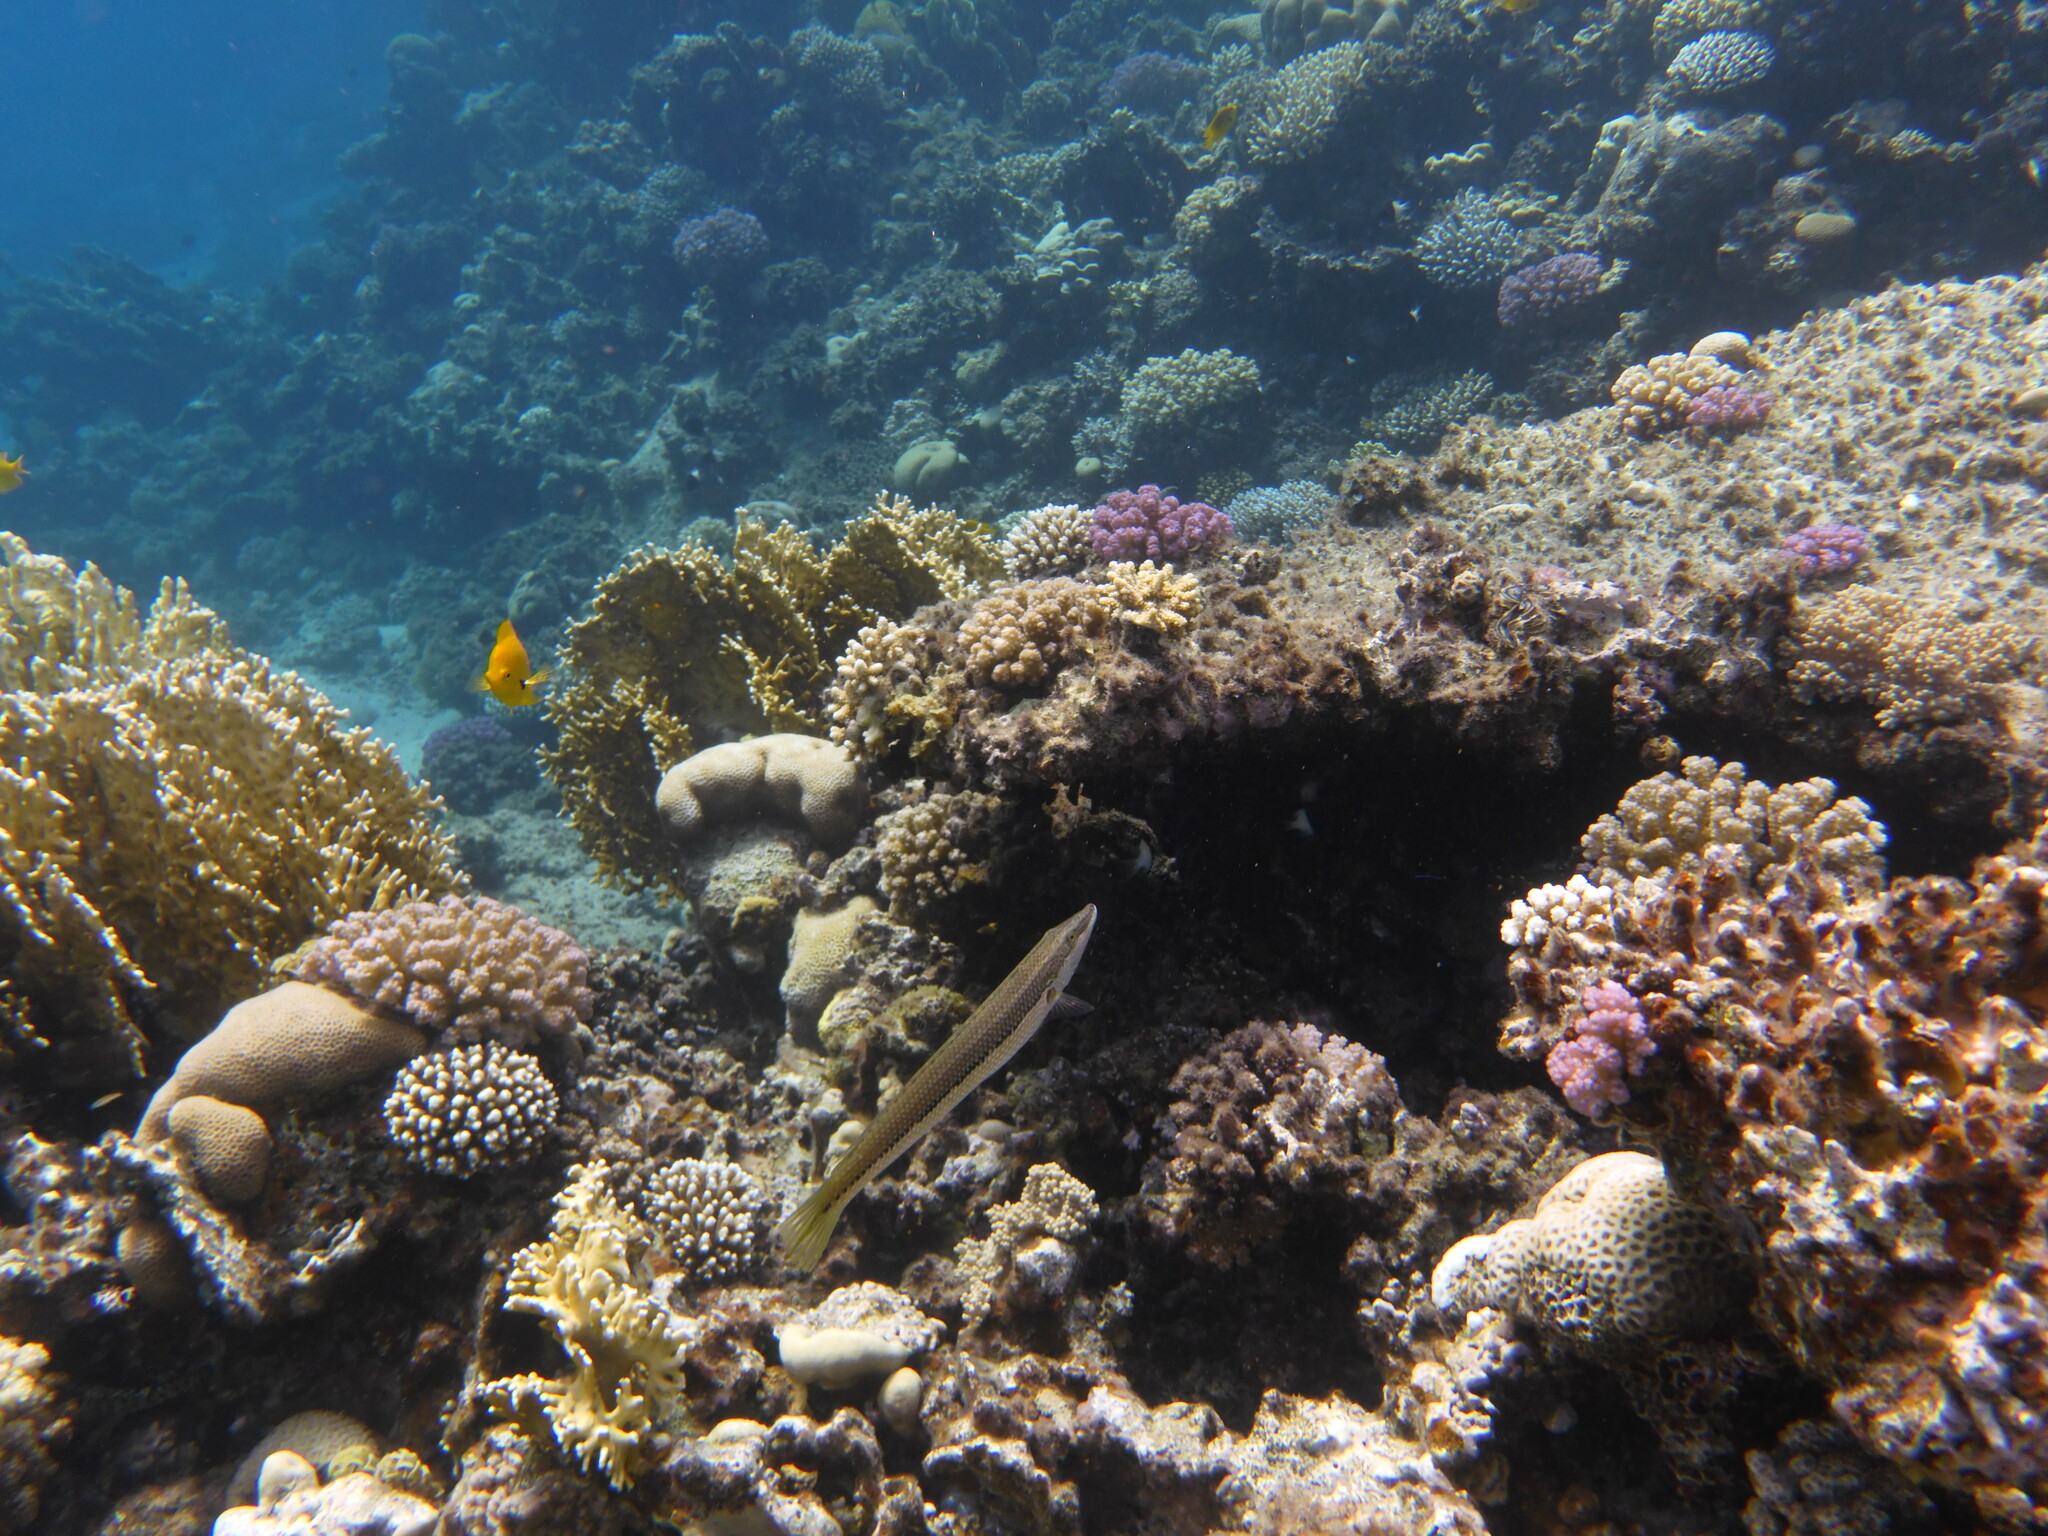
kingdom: Animalia
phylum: Chordata
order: Perciformes
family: Labridae
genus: Cheilio
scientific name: Cheilio inermis
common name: Cigar wrasse
